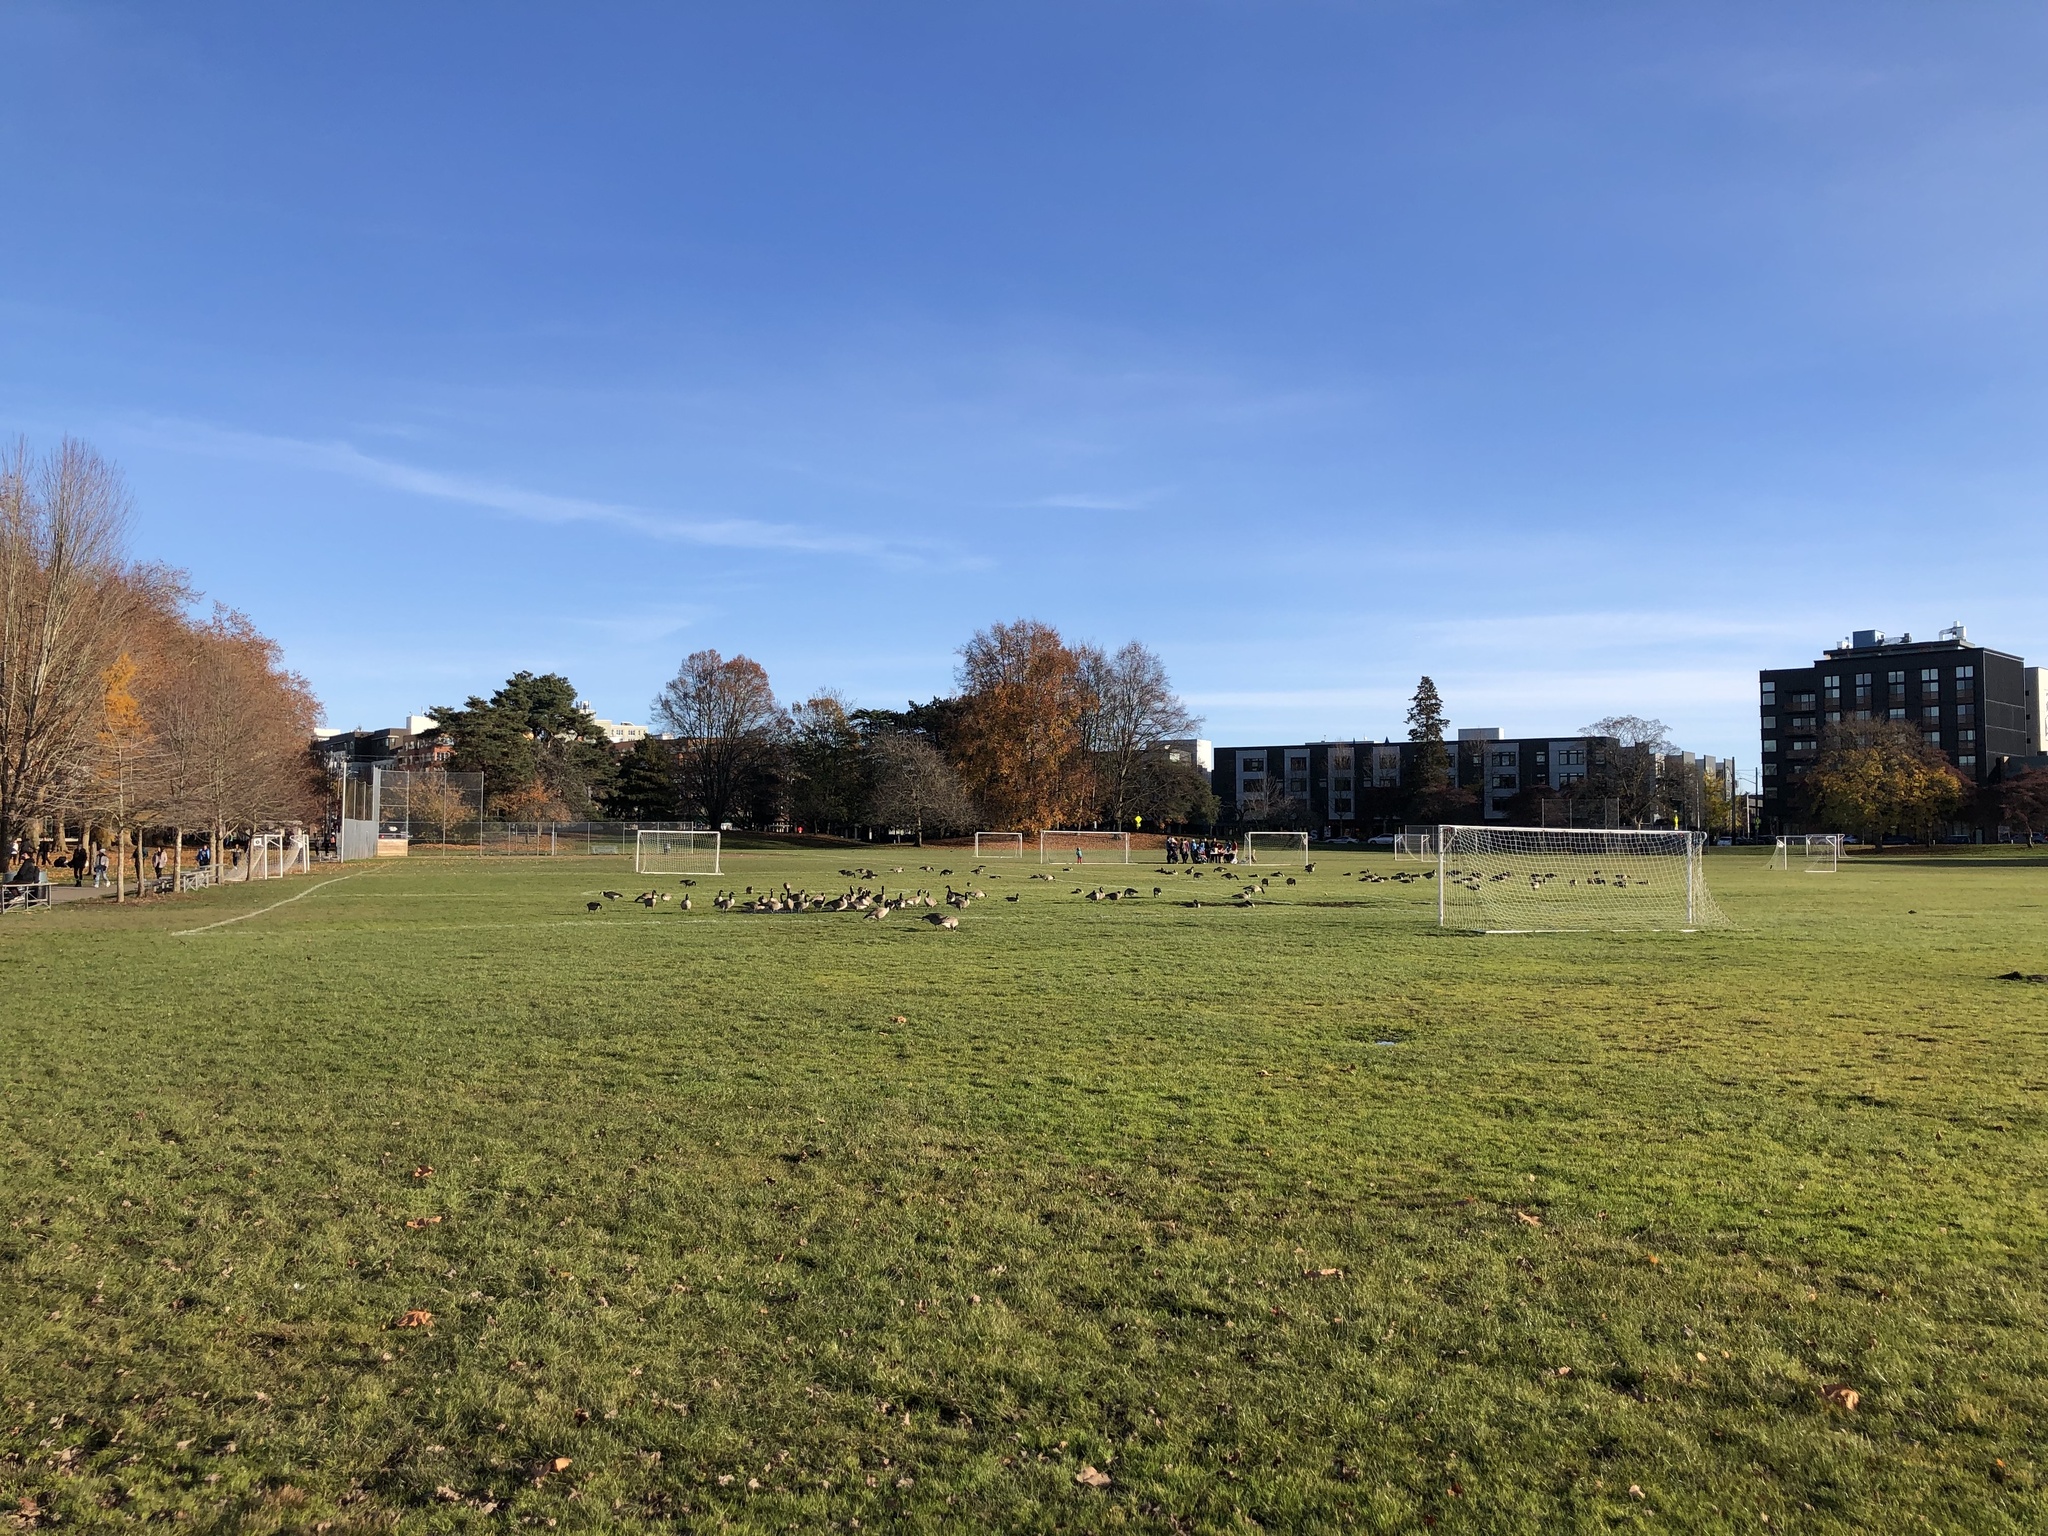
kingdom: Animalia
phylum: Chordata
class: Aves
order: Anseriformes
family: Anatidae
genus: Branta
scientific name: Branta canadensis
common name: Canada goose
